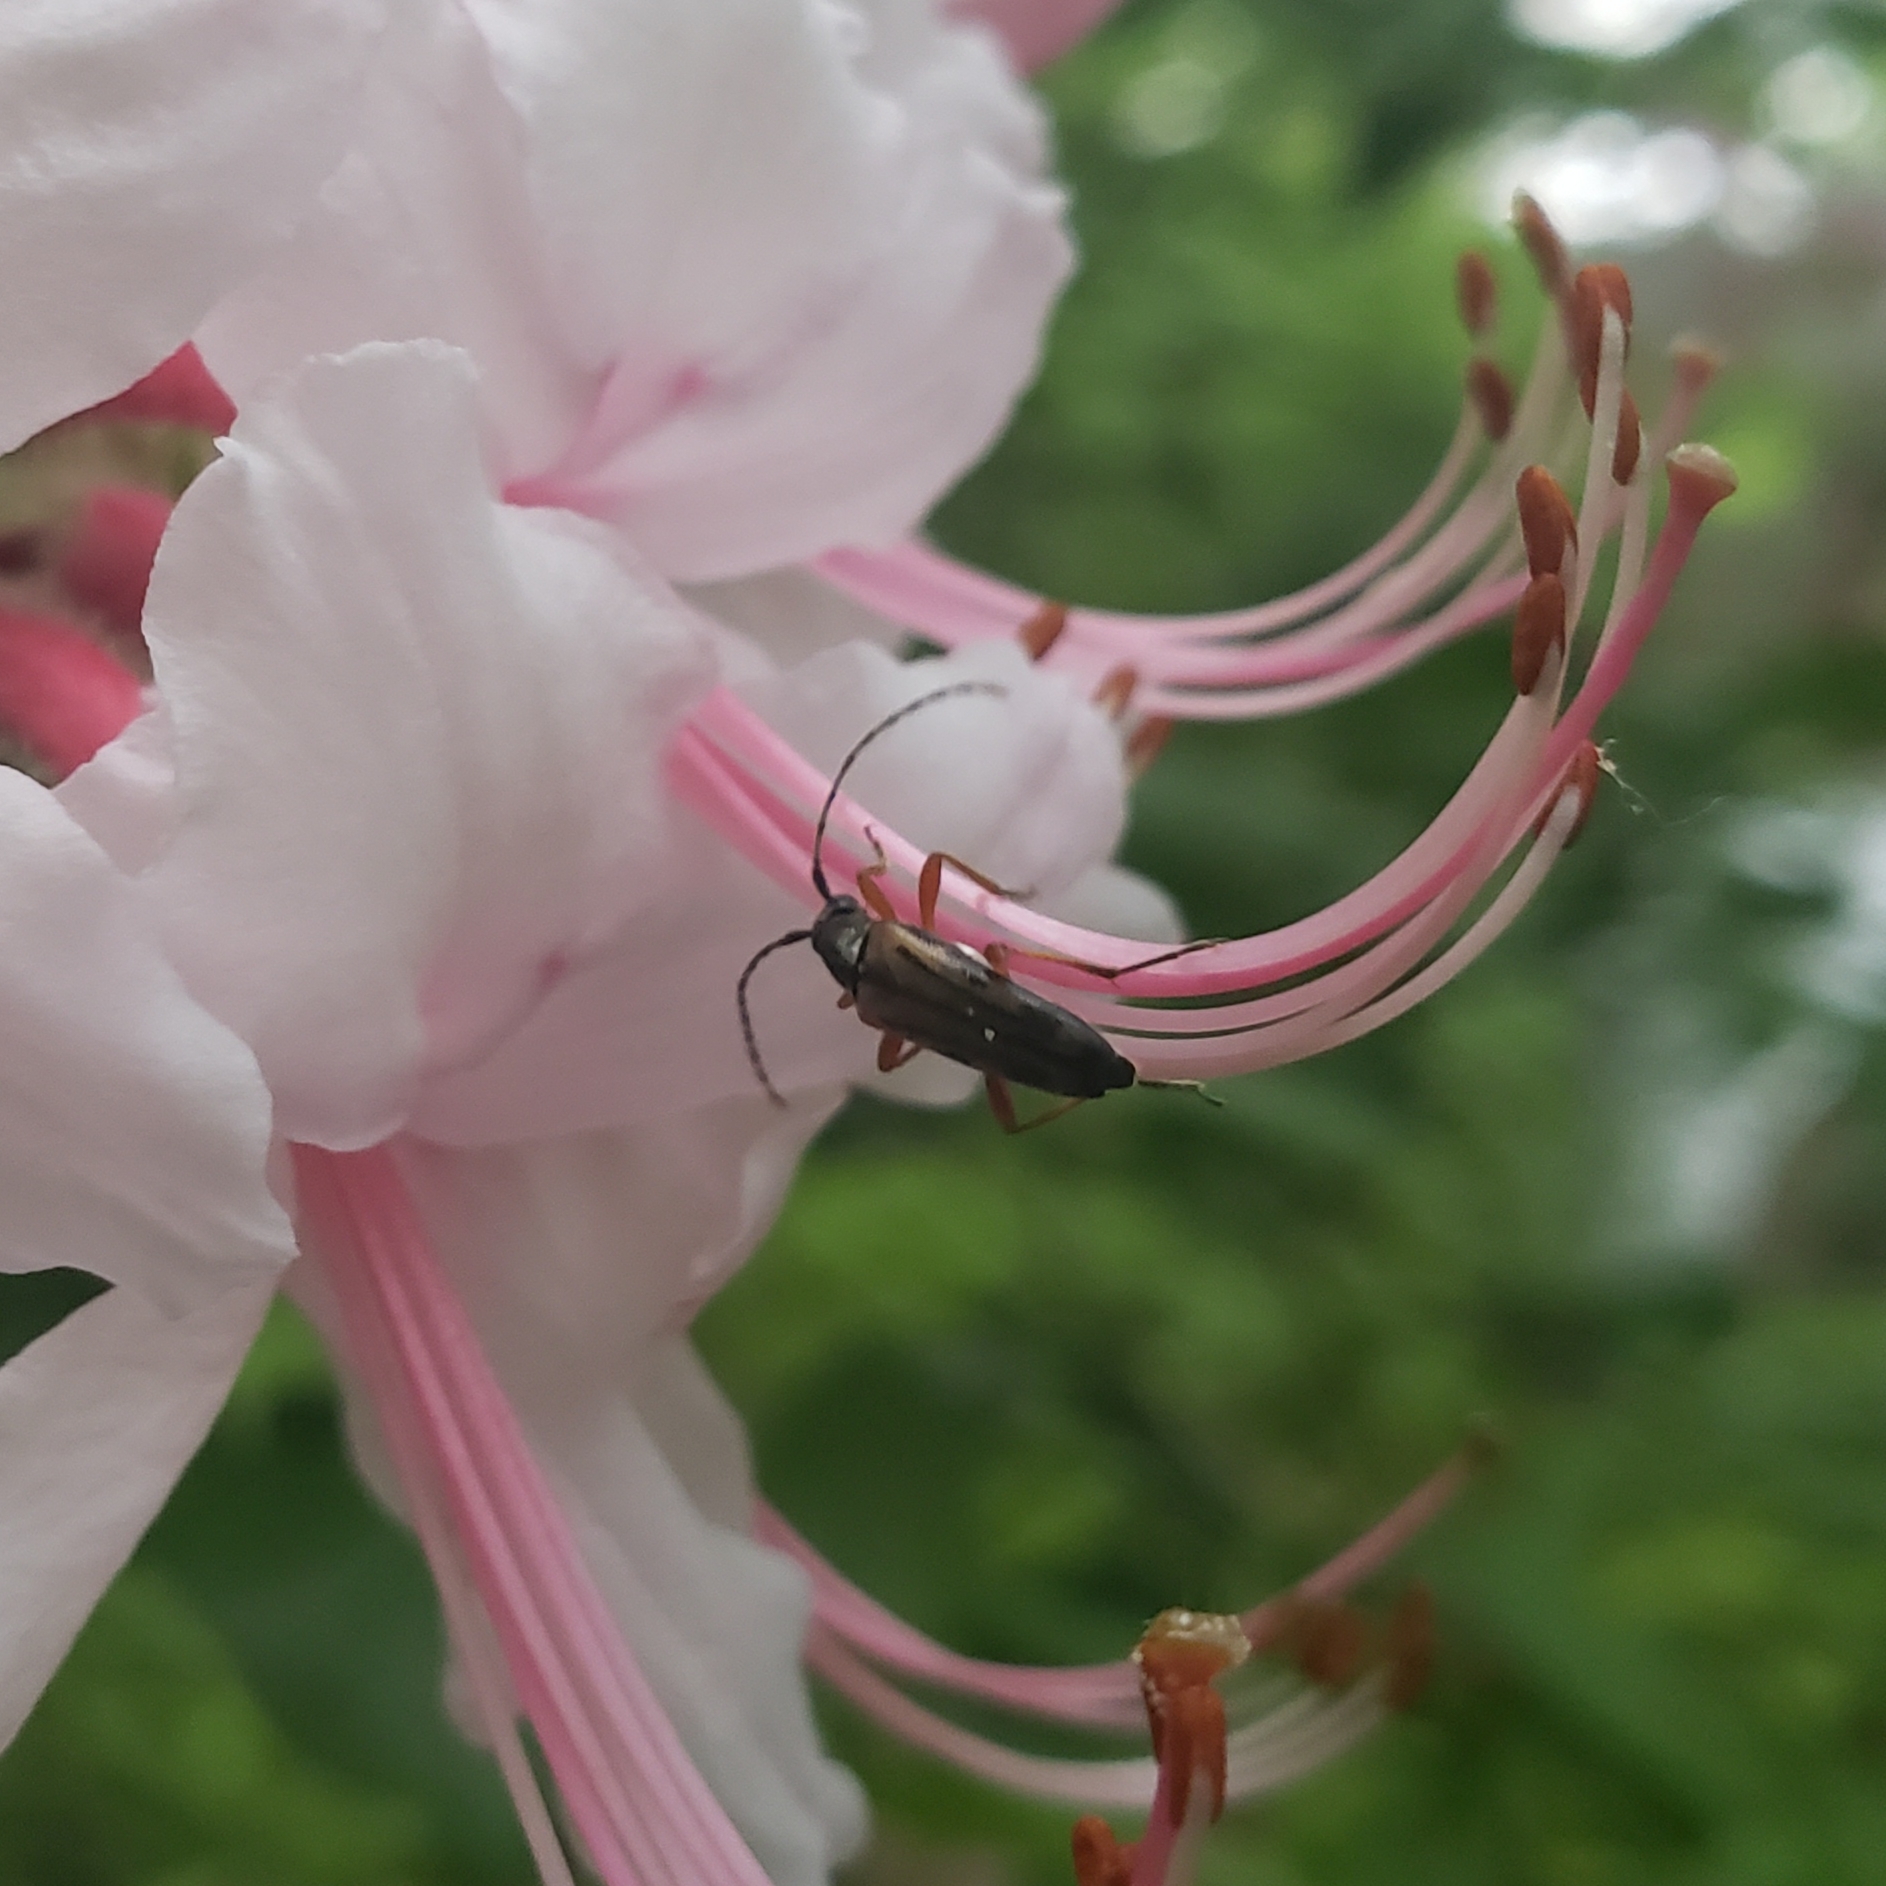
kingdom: Animalia
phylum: Arthropoda
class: Insecta
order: Coleoptera
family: Cerambycidae
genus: Analeptura
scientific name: Analeptura lineola
